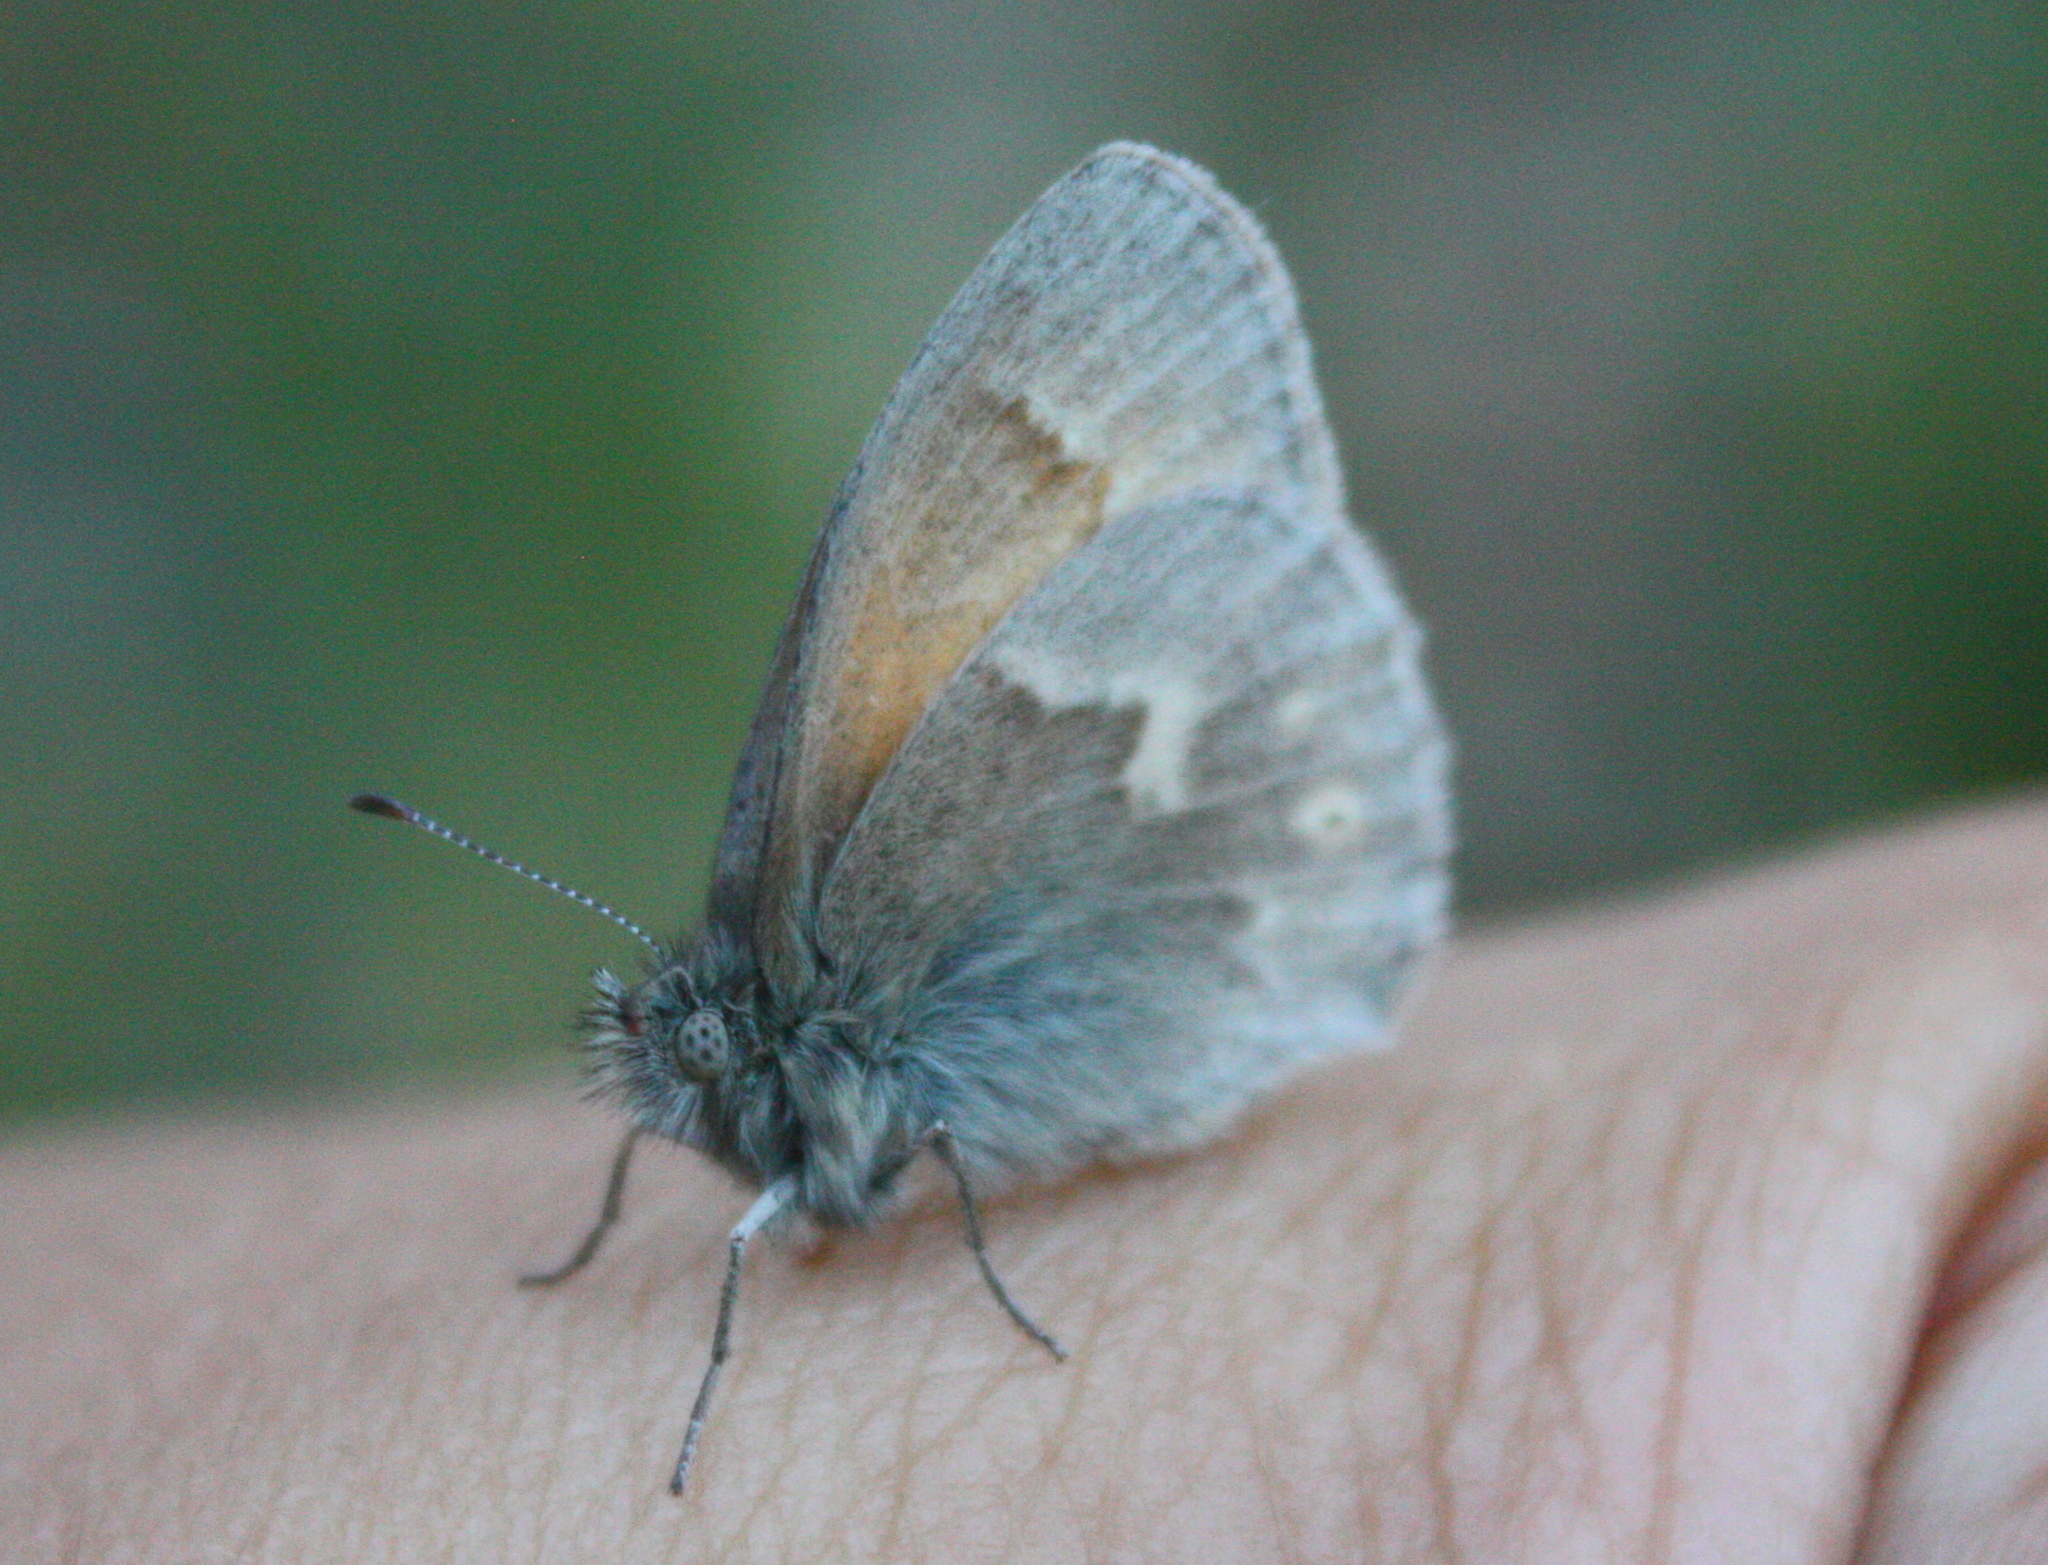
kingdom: Animalia
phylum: Arthropoda
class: Insecta
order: Lepidoptera
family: Nymphalidae
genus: Coenonympha
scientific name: Coenonympha california
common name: Common ringlet
